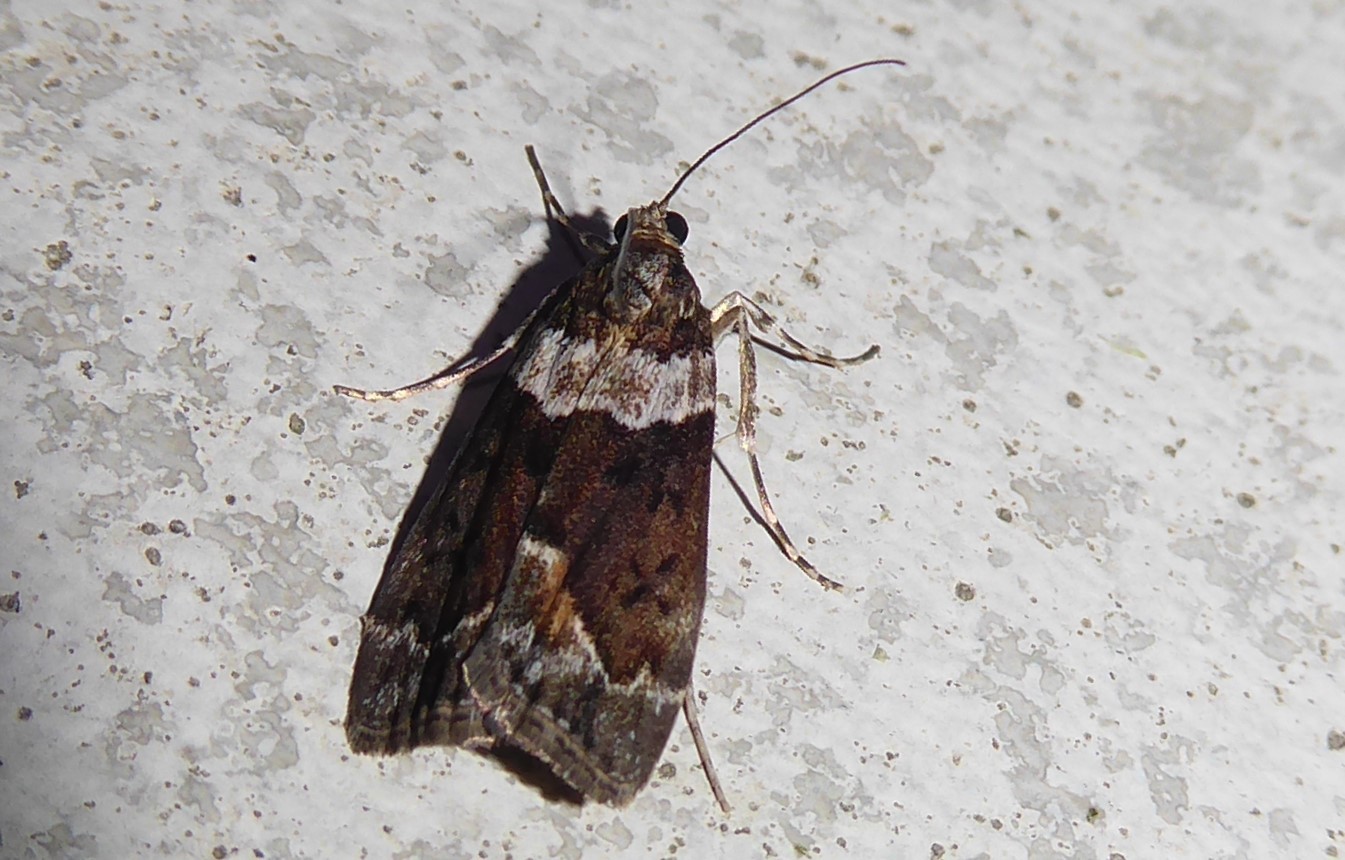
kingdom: Animalia
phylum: Arthropoda
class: Insecta
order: Lepidoptera
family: Crambidae
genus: Eudonia
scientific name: Eudonia submarginalis
